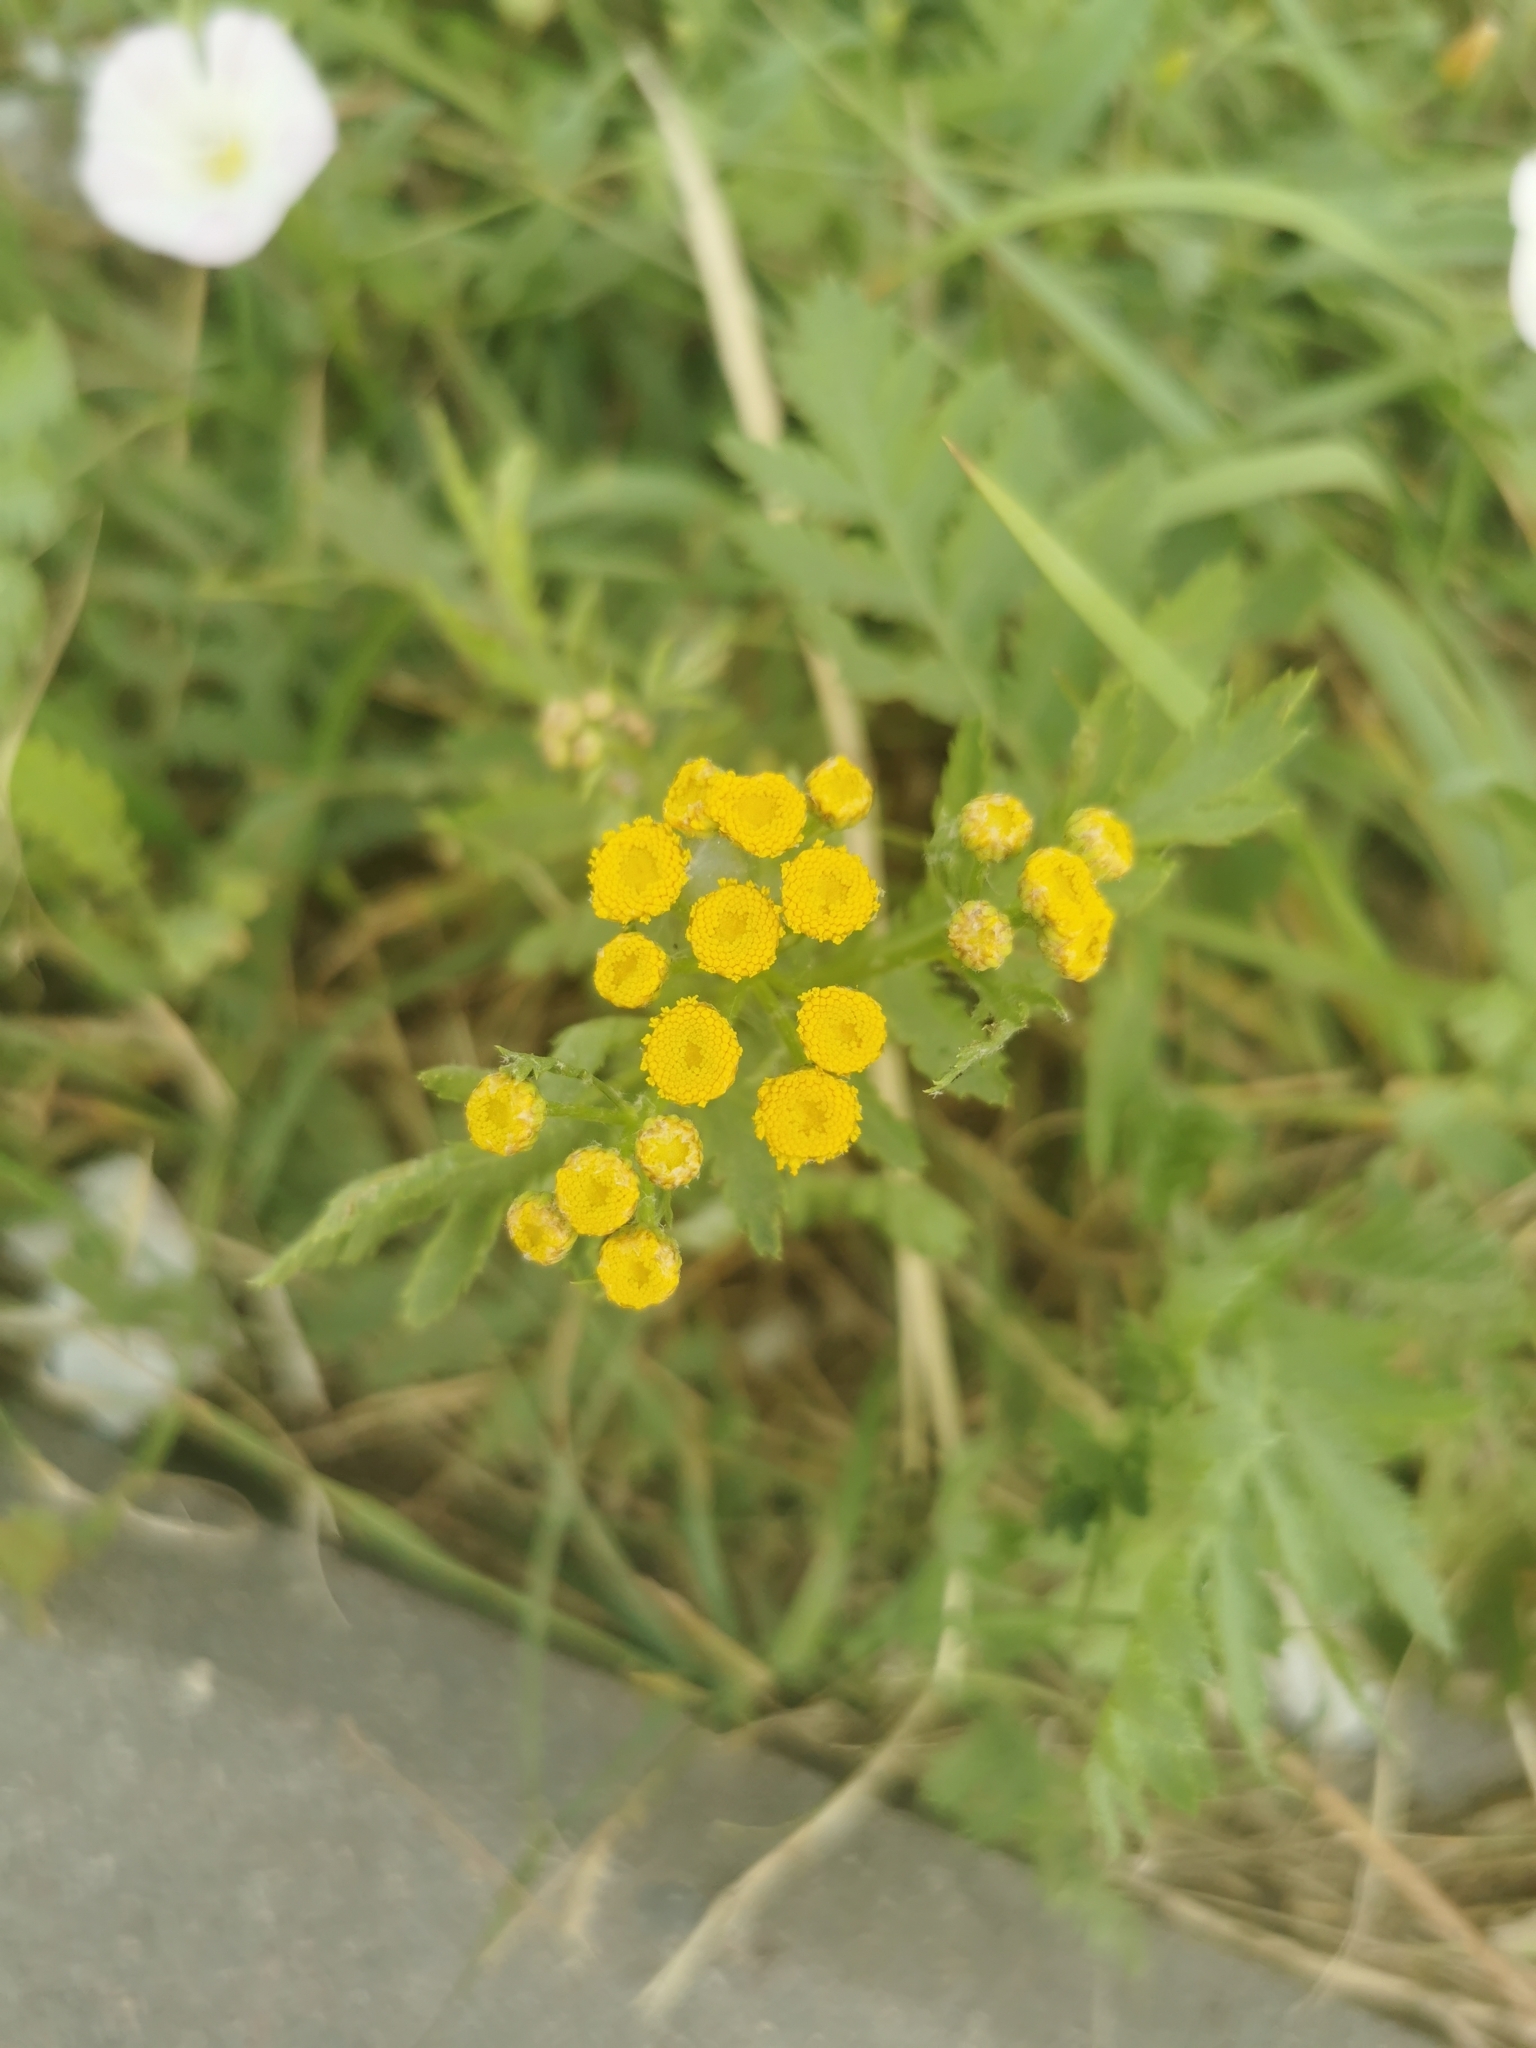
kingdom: Plantae
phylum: Tracheophyta
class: Magnoliopsida
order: Asterales
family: Asteraceae
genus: Tanacetum
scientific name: Tanacetum vulgare
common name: Common tansy
